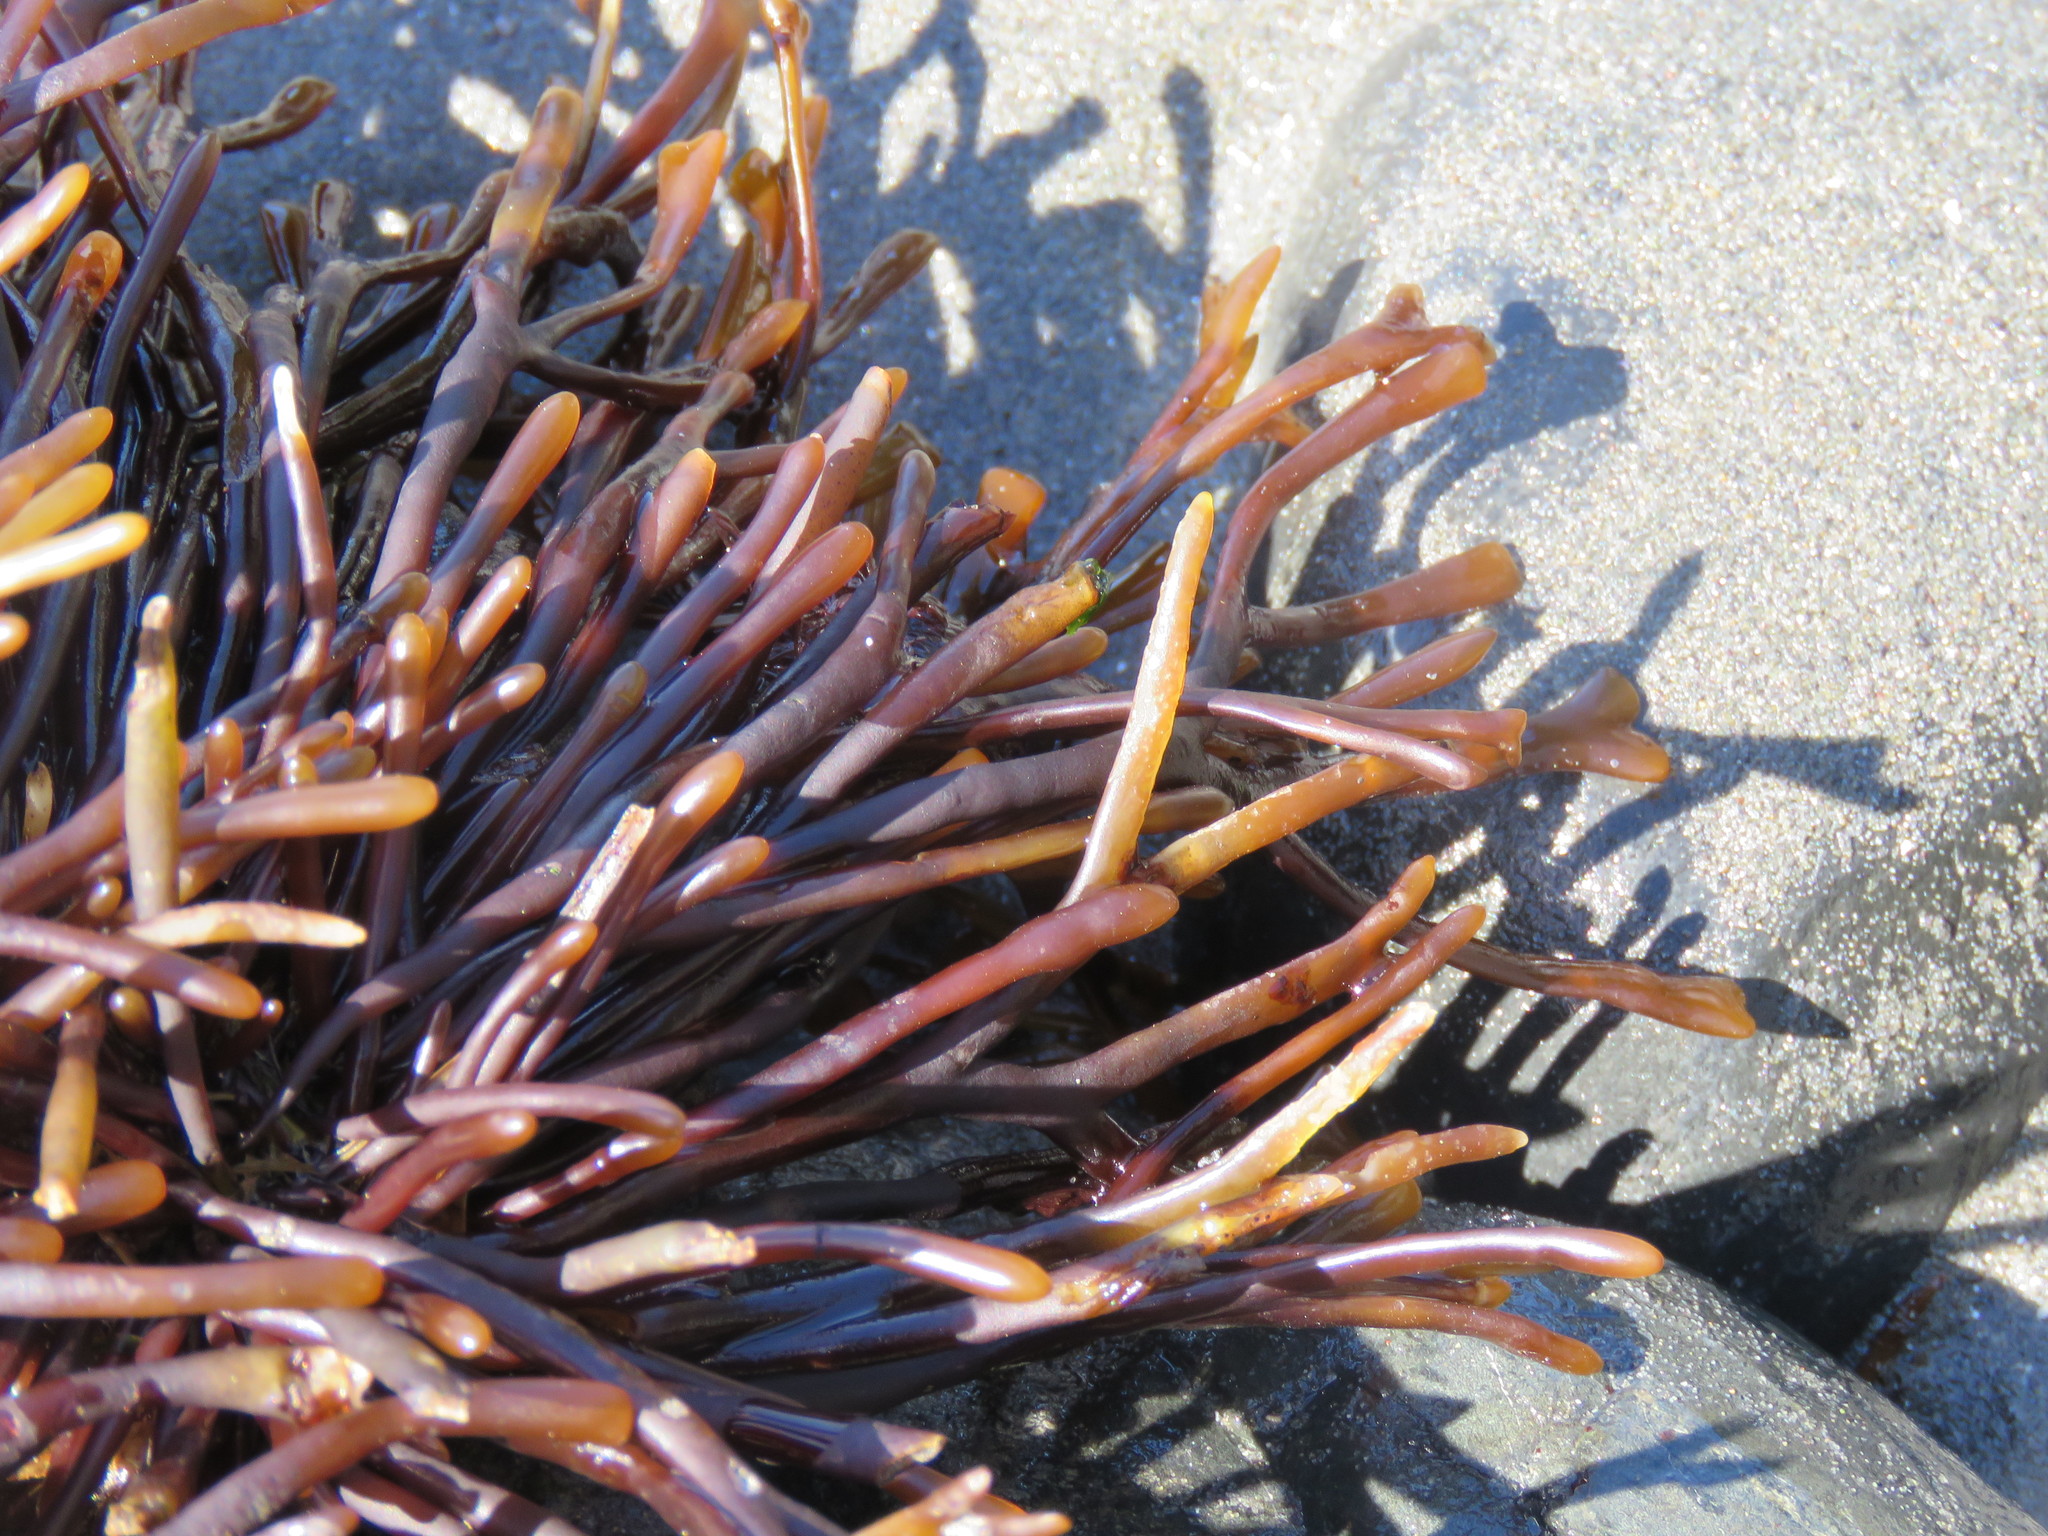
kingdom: Plantae
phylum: Rhodophyta
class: Florideophyceae
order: Gigartinales
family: Phyllophoraceae
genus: Ahnfeltiopsis
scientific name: Ahnfeltiopsis linearis
